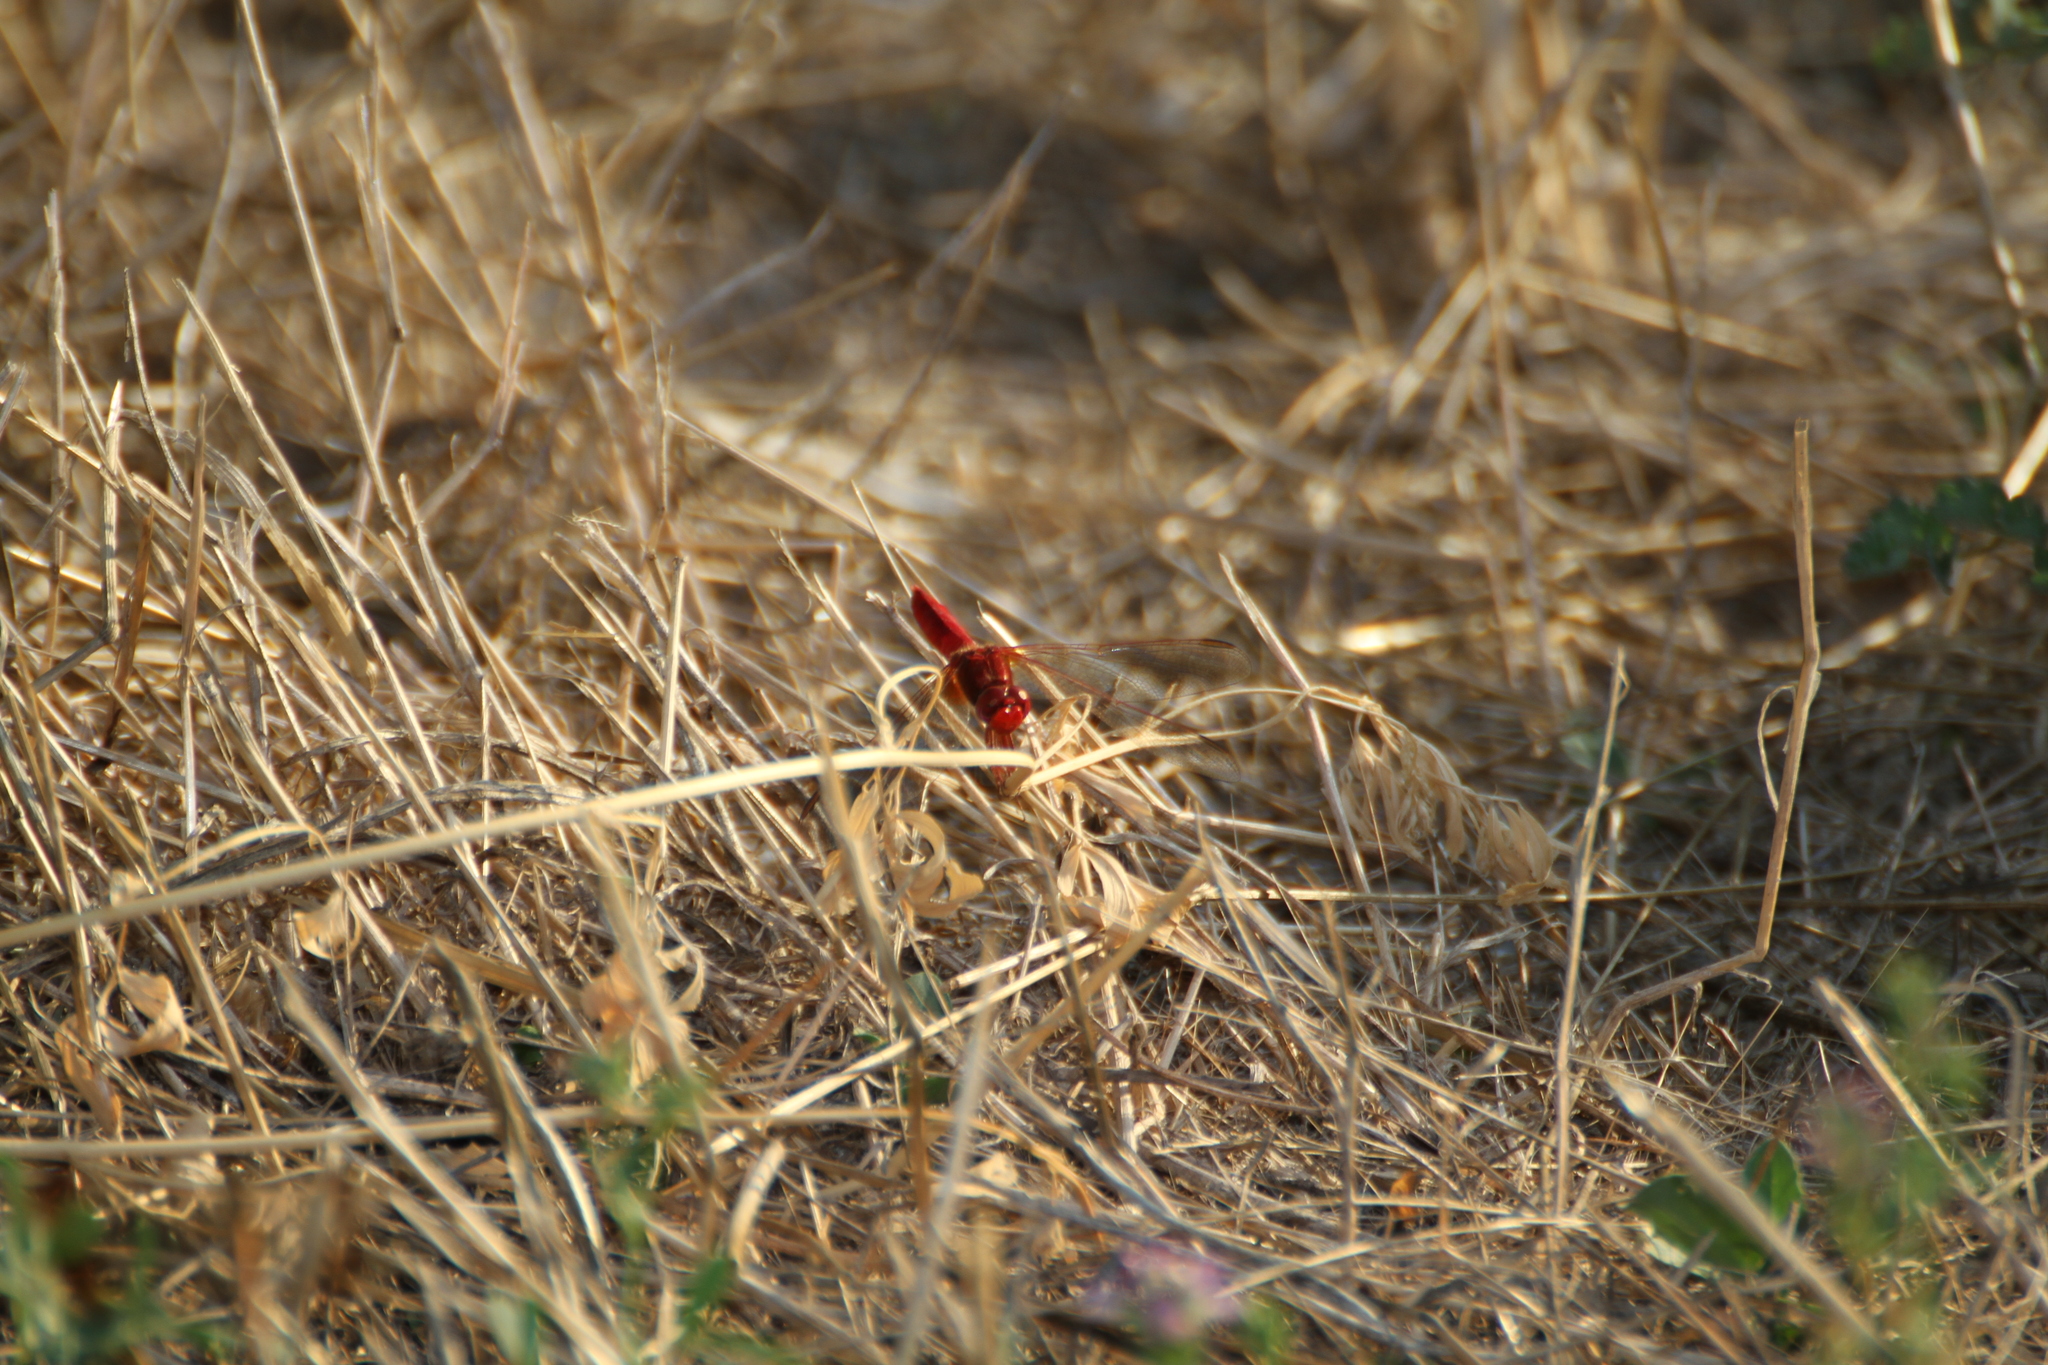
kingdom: Animalia
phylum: Arthropoda
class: Insecta
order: Odonata
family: Libellulidae
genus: Crocothemis
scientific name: Crocothemis erythraea
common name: Scarlet dragonfly
